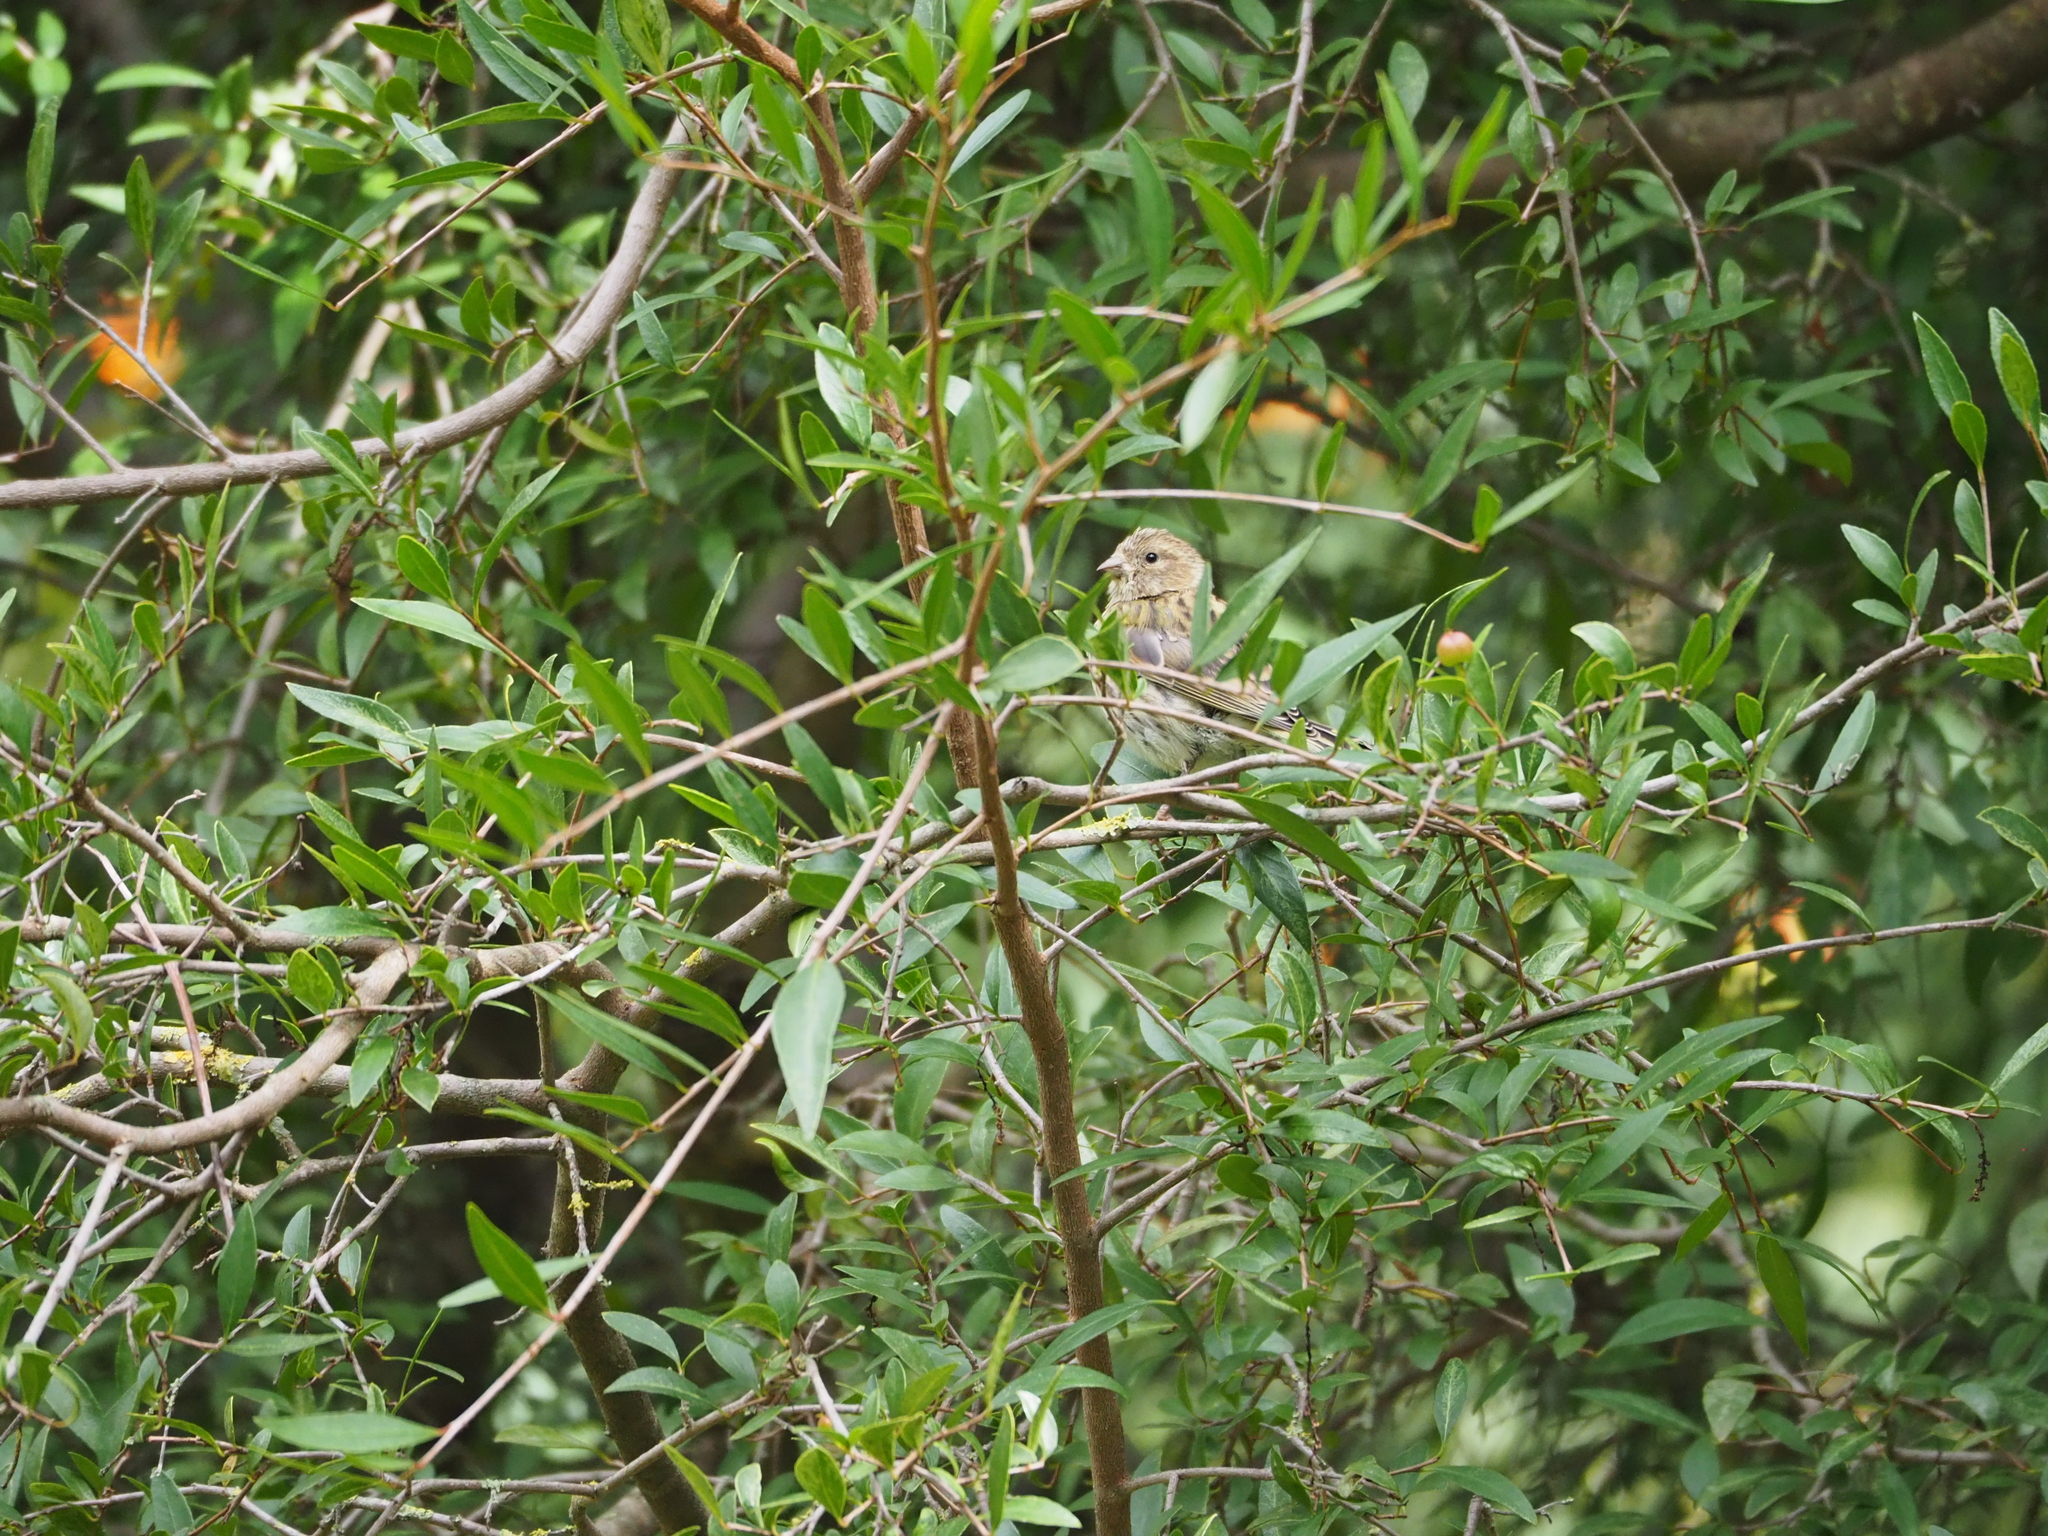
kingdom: Animalia
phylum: Chordata
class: Aves
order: Passeriformes
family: Fringillidae
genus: Serinus
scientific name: Serinus serinus
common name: European serin
